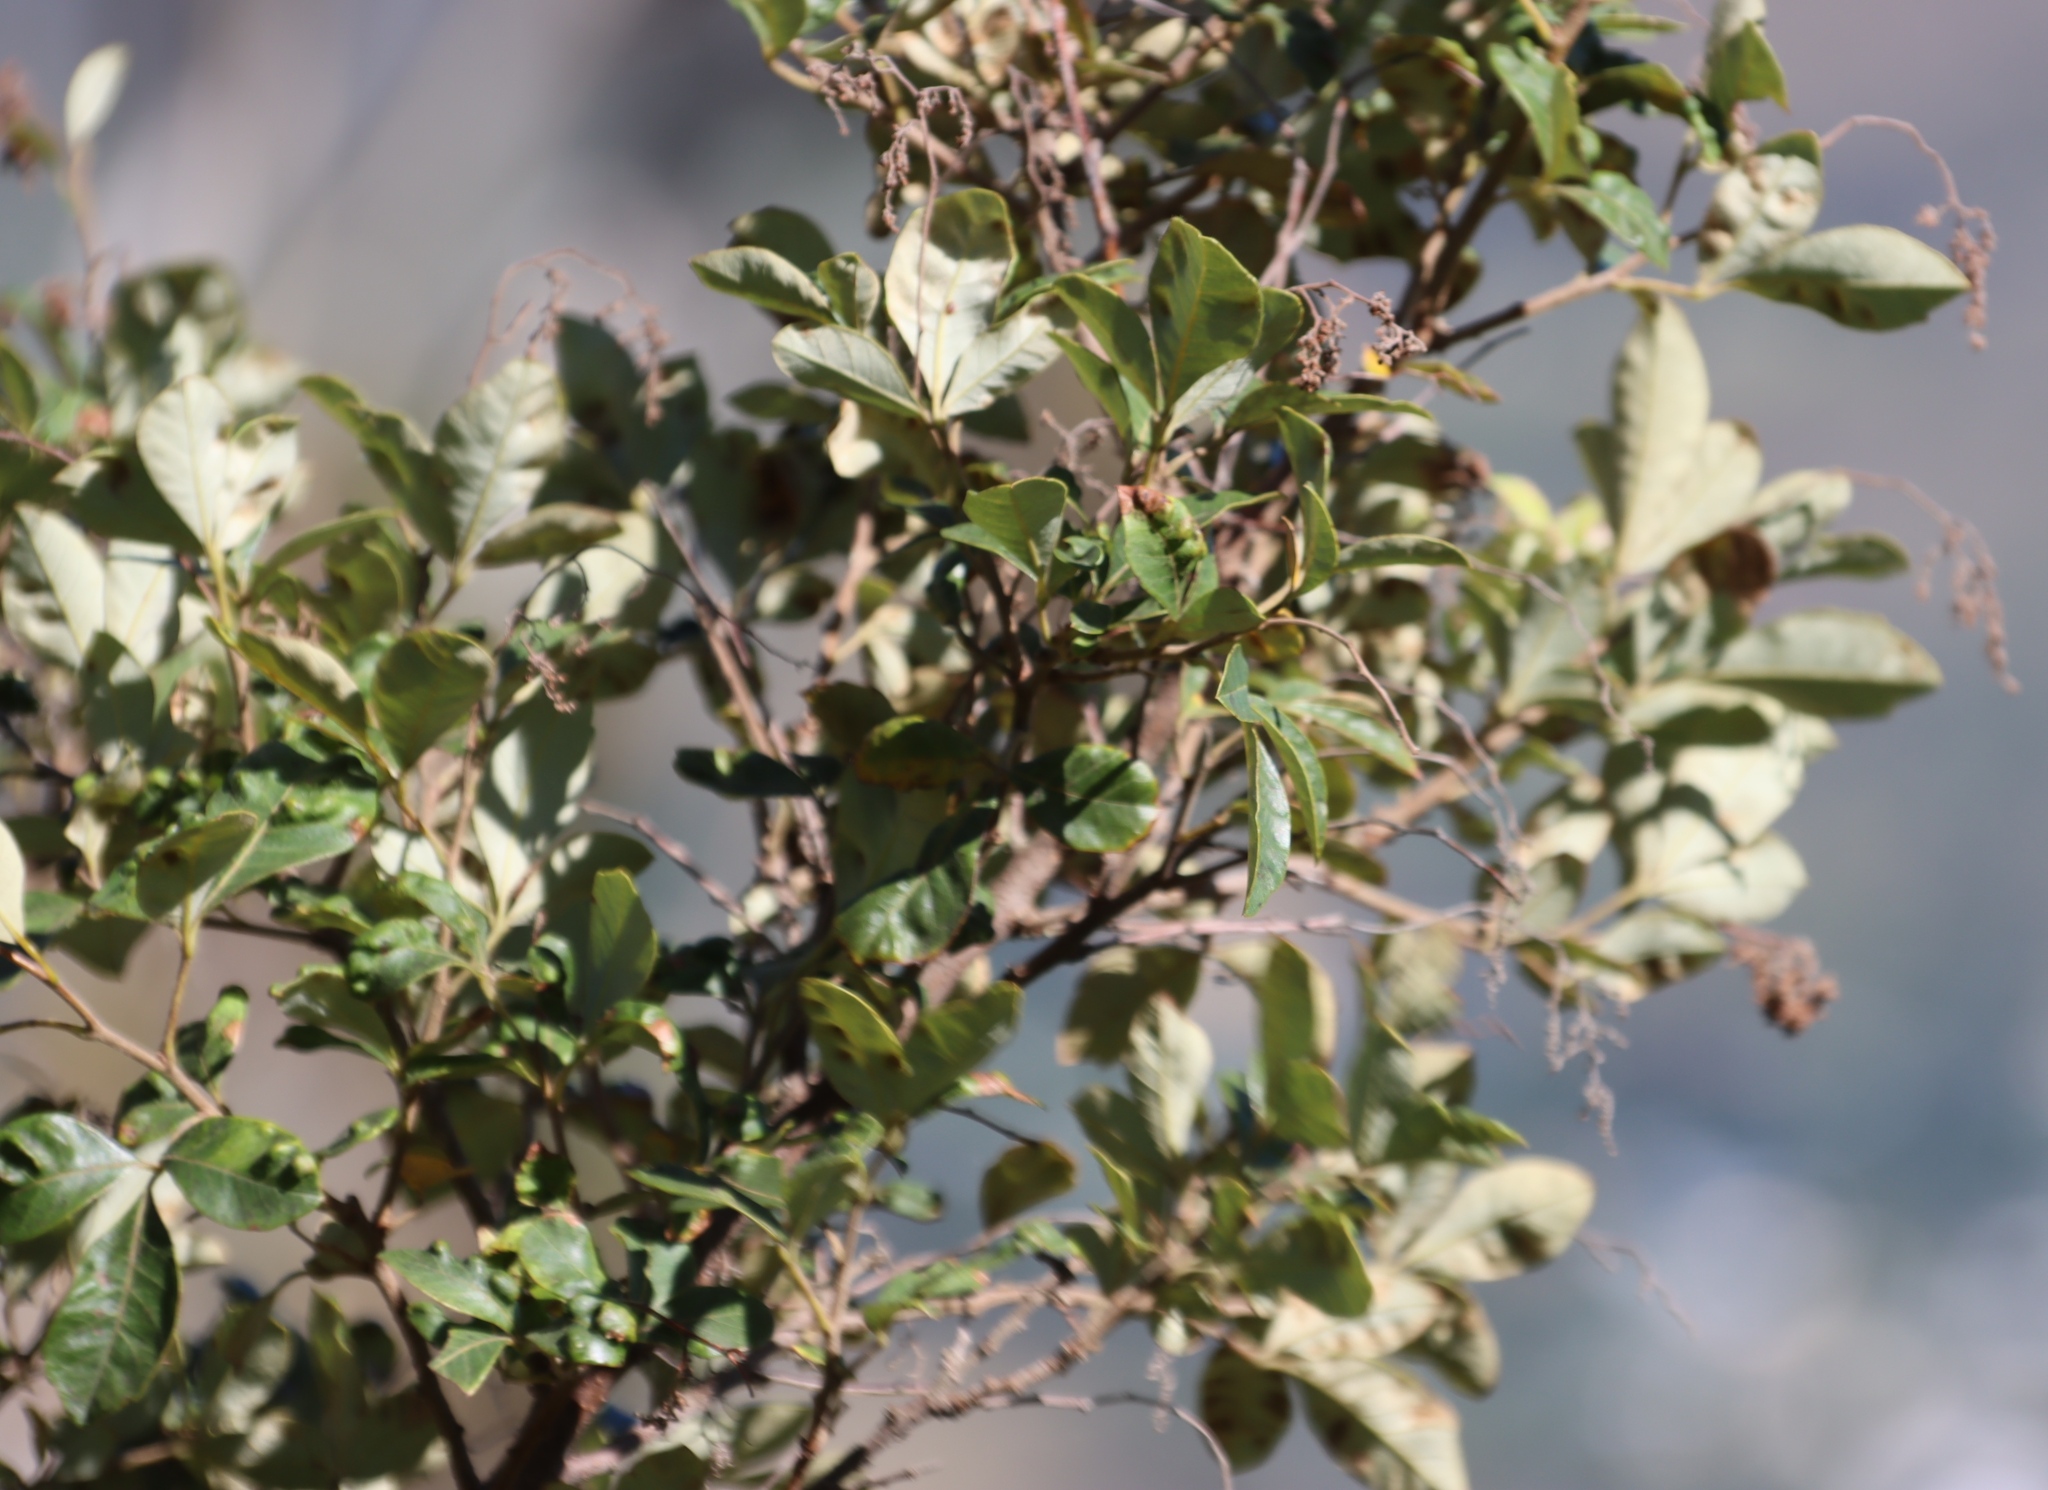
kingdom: Plantae
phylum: Tracheophyta
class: Magnoliopsida
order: Sapindales
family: Anacardiaceae
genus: Searsia
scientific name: Searsia tomentosa
